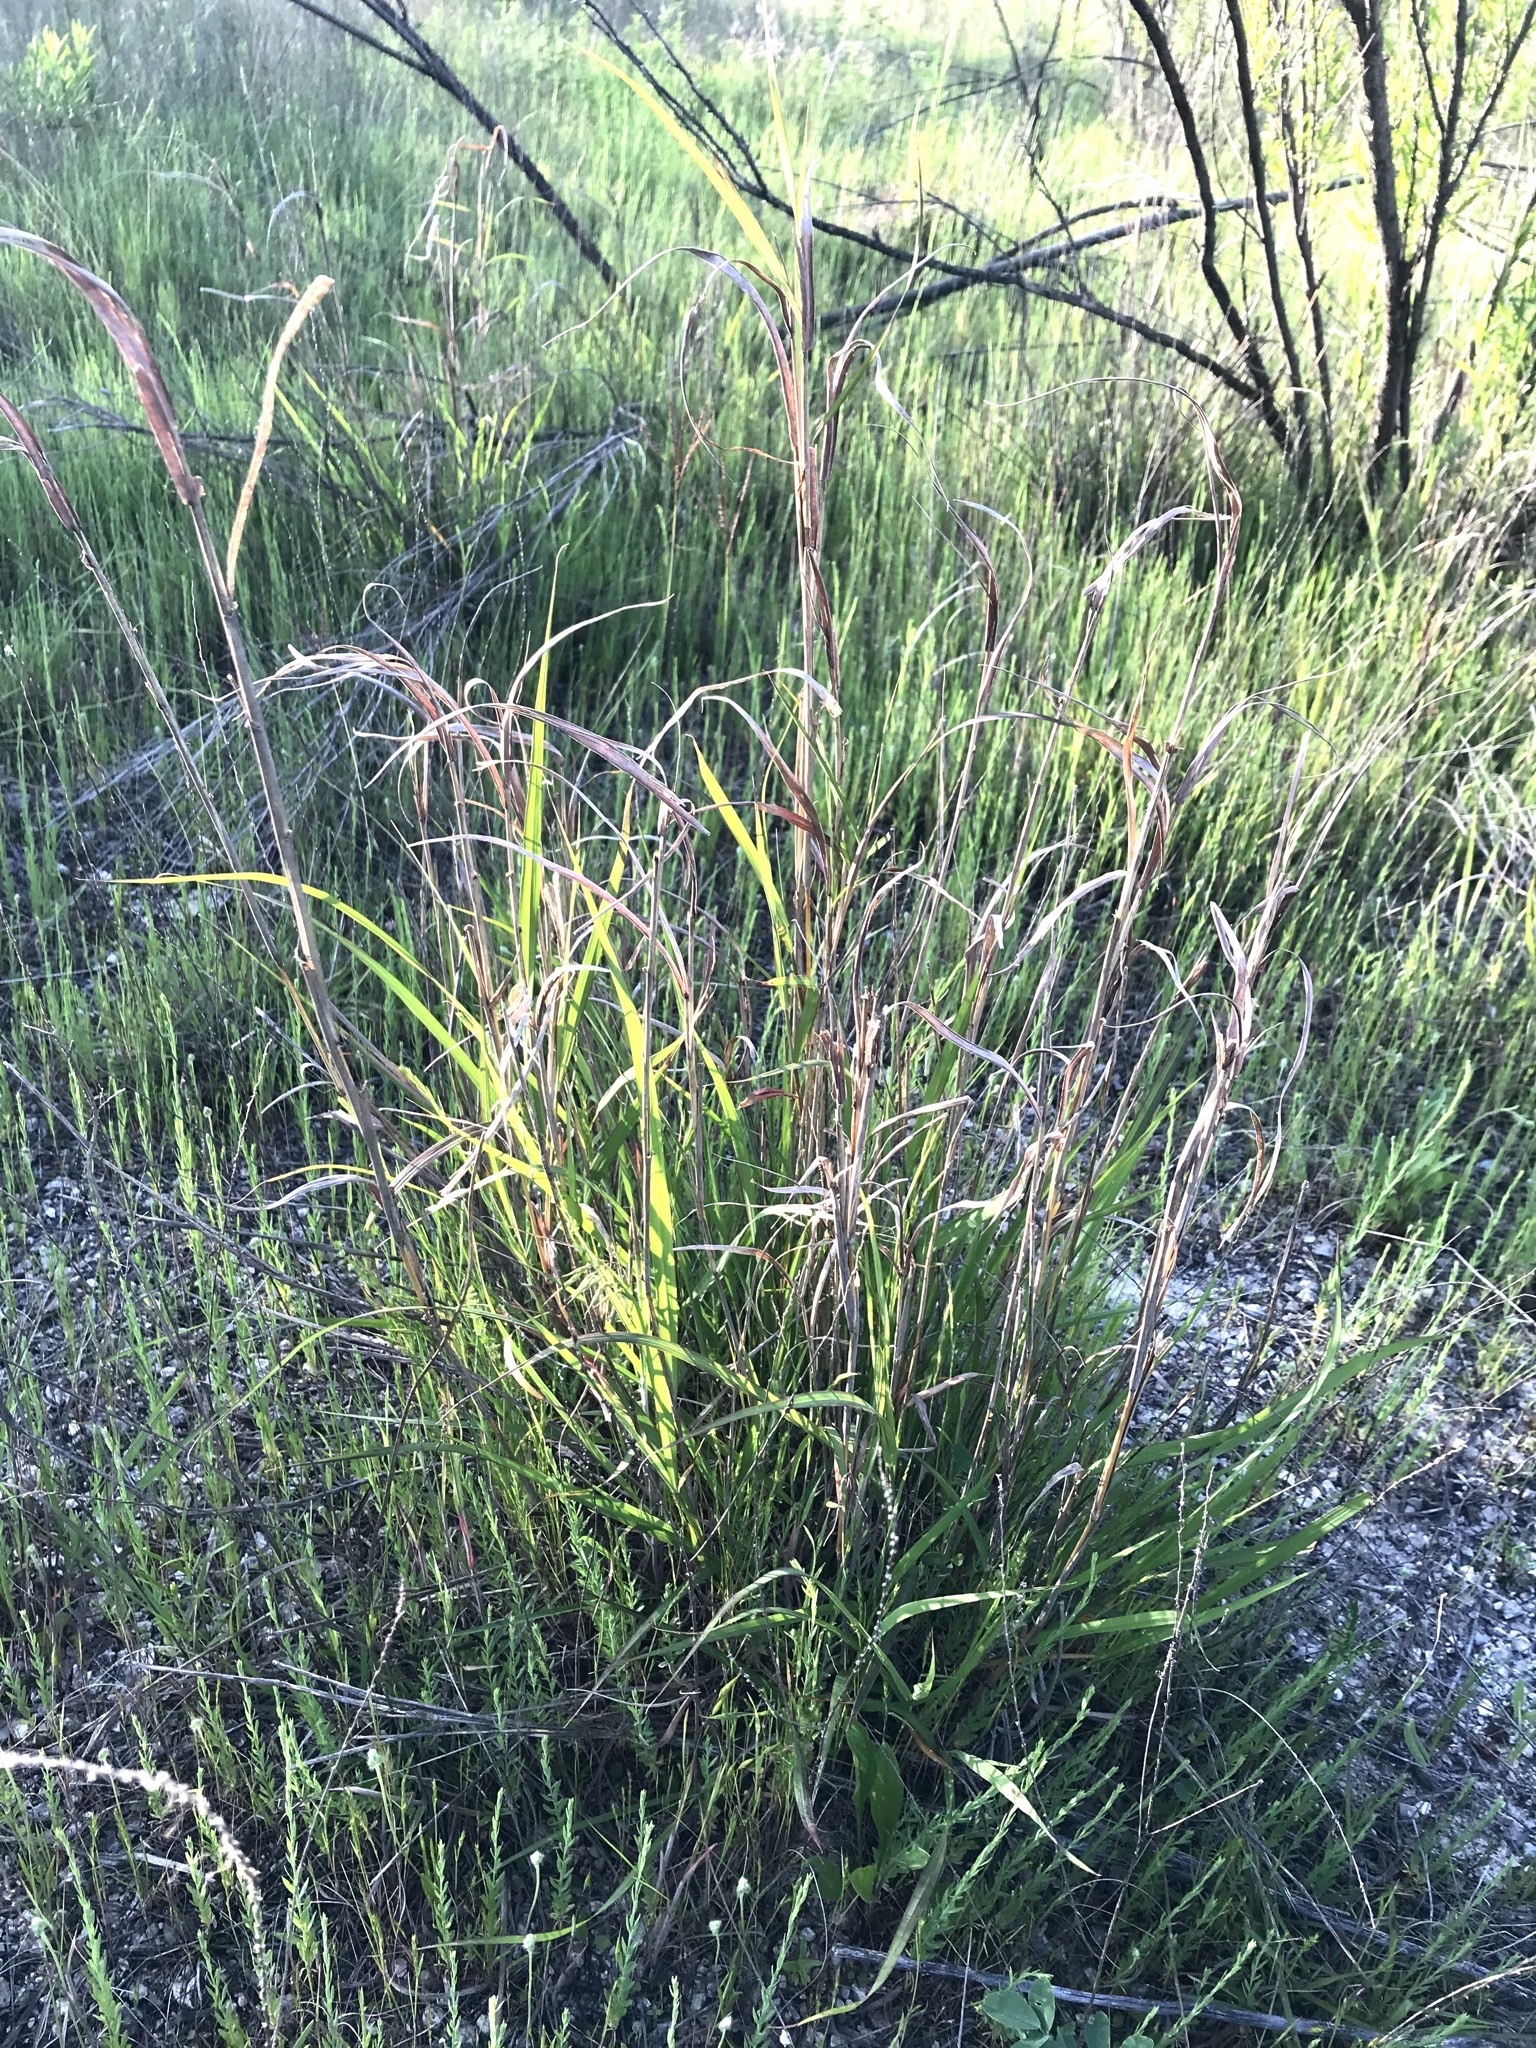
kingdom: Plantae
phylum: Tracheophyta
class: Liliopsida
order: Poales
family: Poaceae
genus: Panicum
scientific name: Panicum virgatum
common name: Switchgrass
